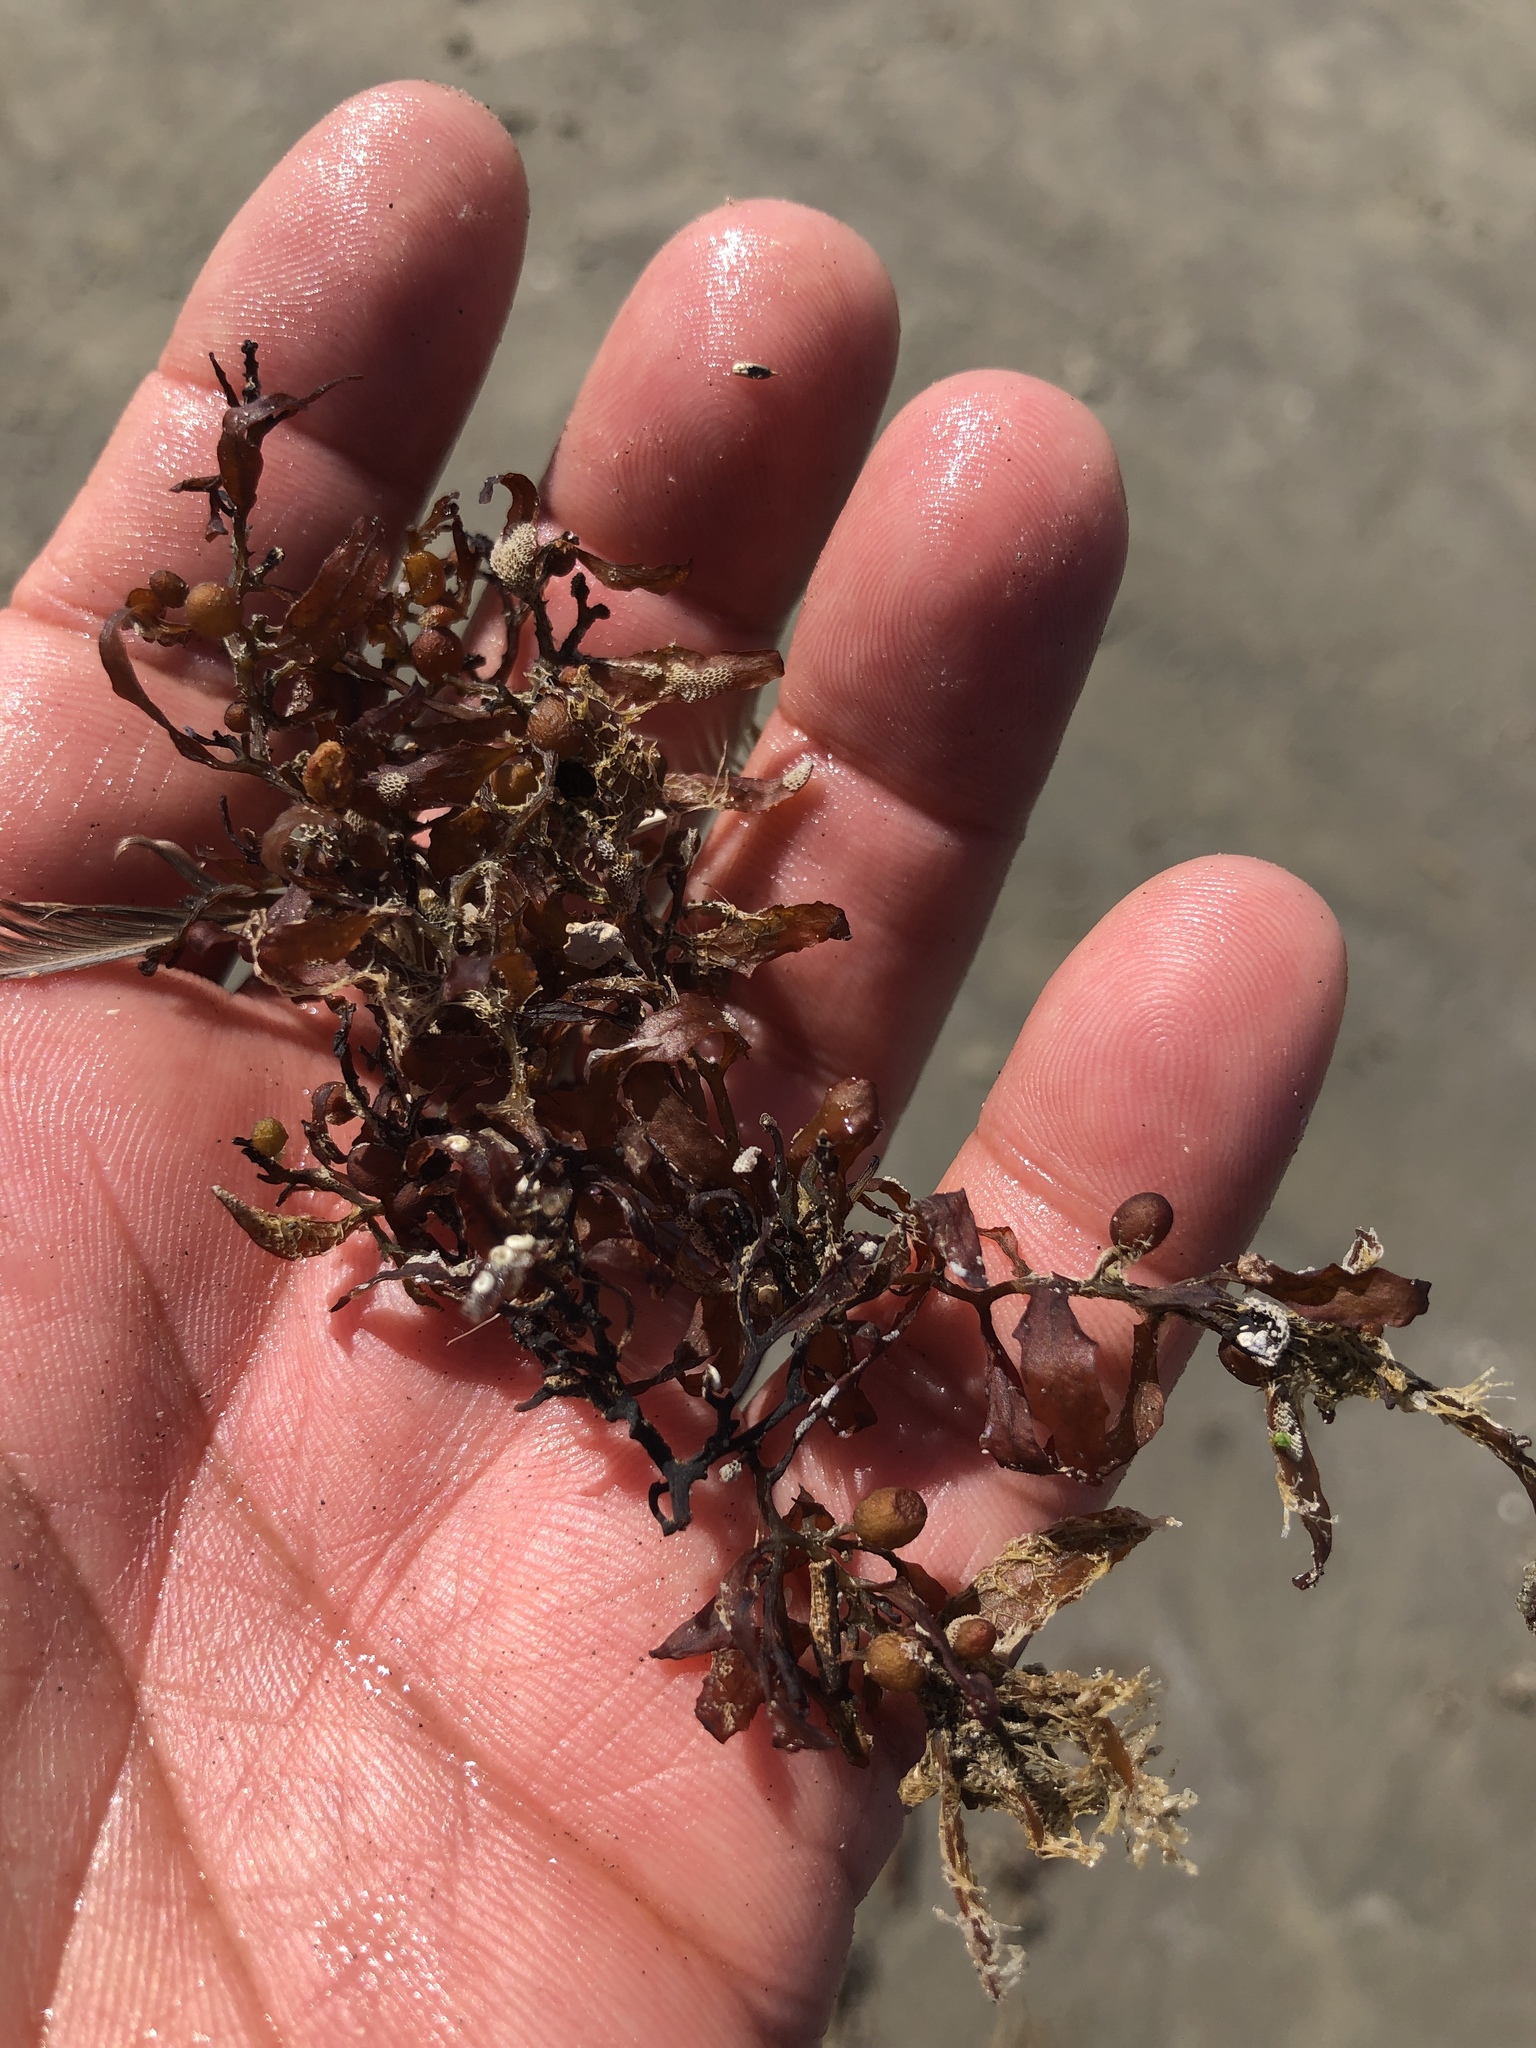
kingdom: Chromista
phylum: Ochrophyta
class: Phaeophyceae
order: Fucales
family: Sargassaceae
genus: Sargassum
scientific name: Sargassum fluitans
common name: Sargassum seaweed
